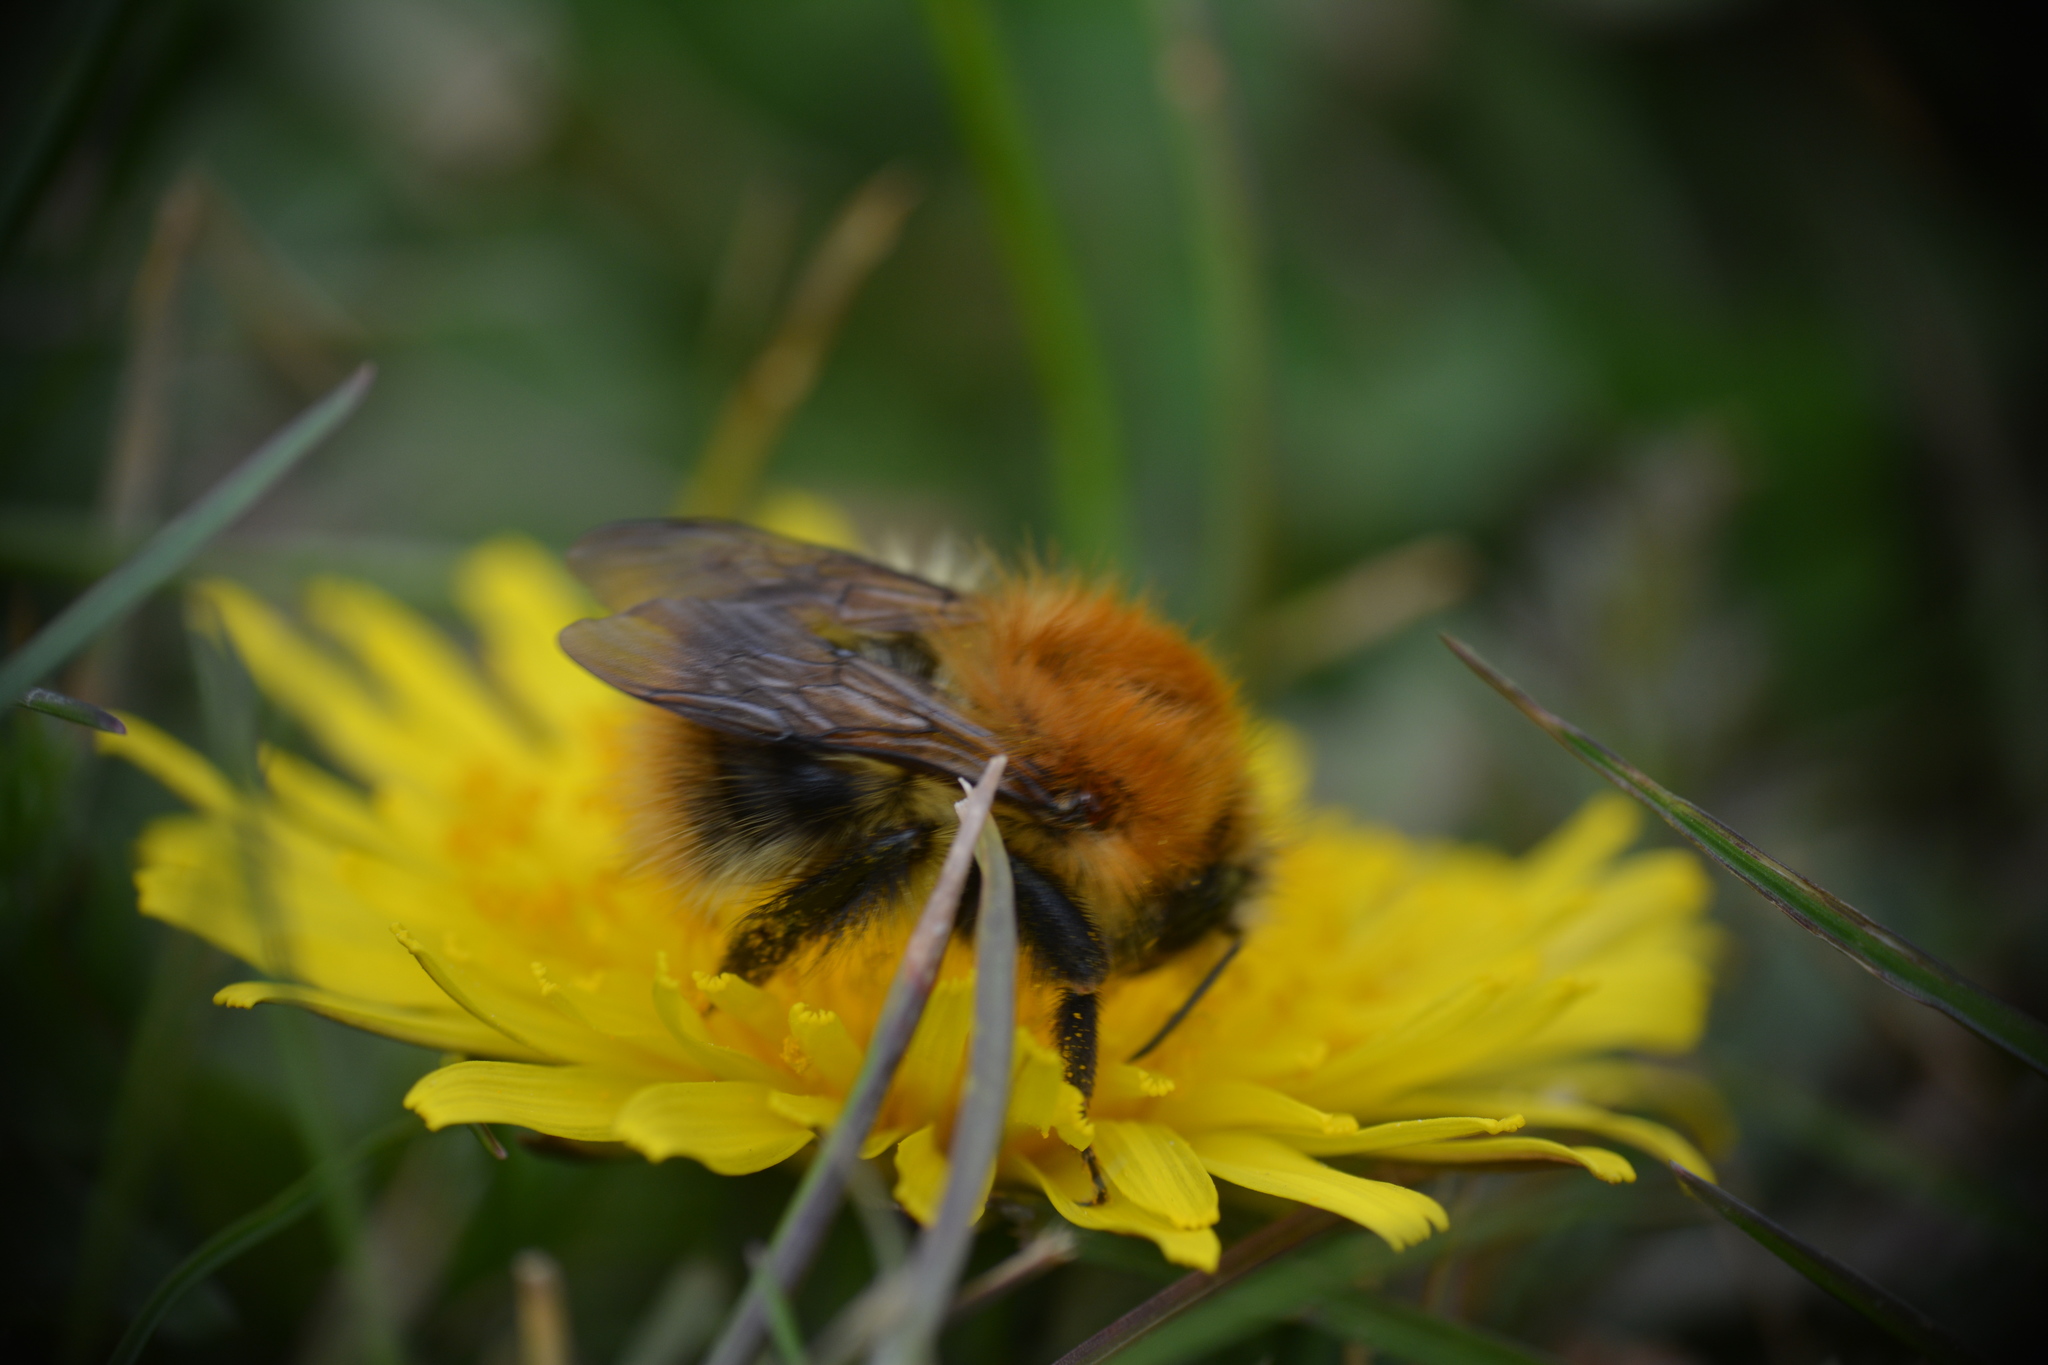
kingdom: Animalia
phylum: Arthropoda
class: Insecta
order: Hymenoptera
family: Apidae
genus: Bombus
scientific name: Bombus pascuorum
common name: Common carder bee
